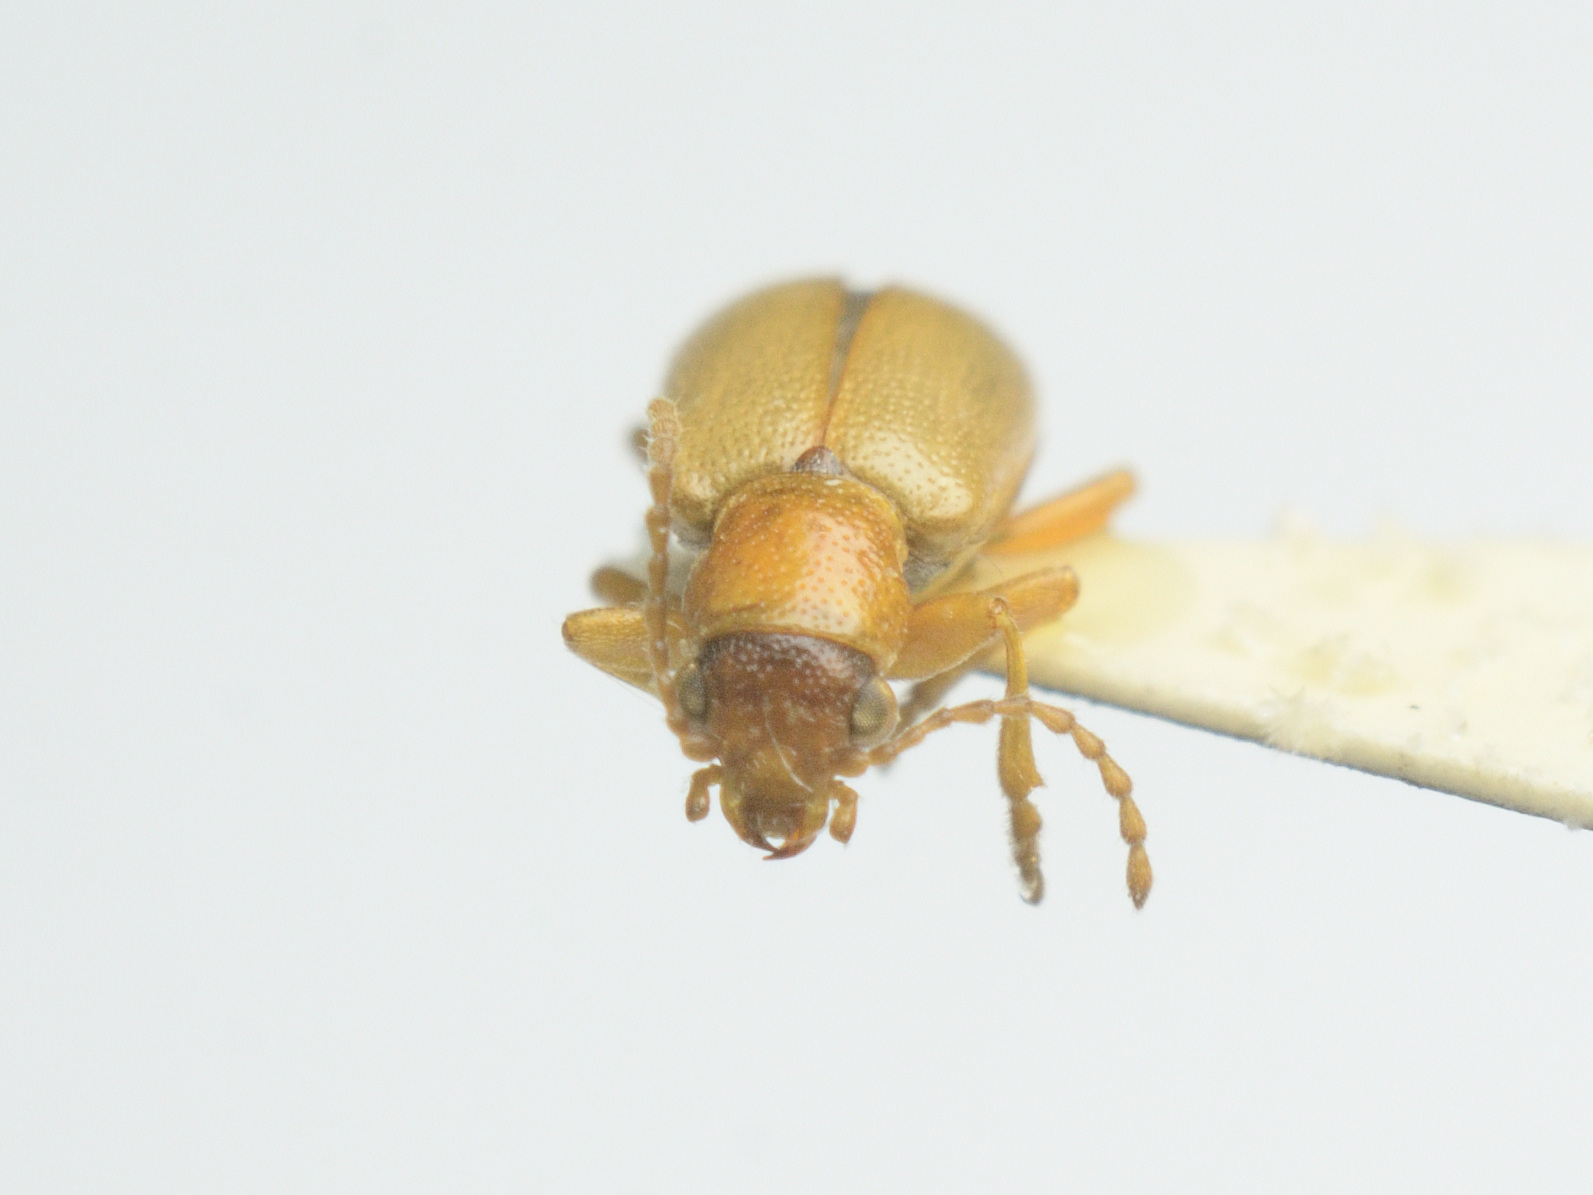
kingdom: Animalia
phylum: Arthropoda
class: Insecta
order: Coleoptera
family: Orsodacnidae
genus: Orsodacne
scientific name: Orsodacne cerasi
